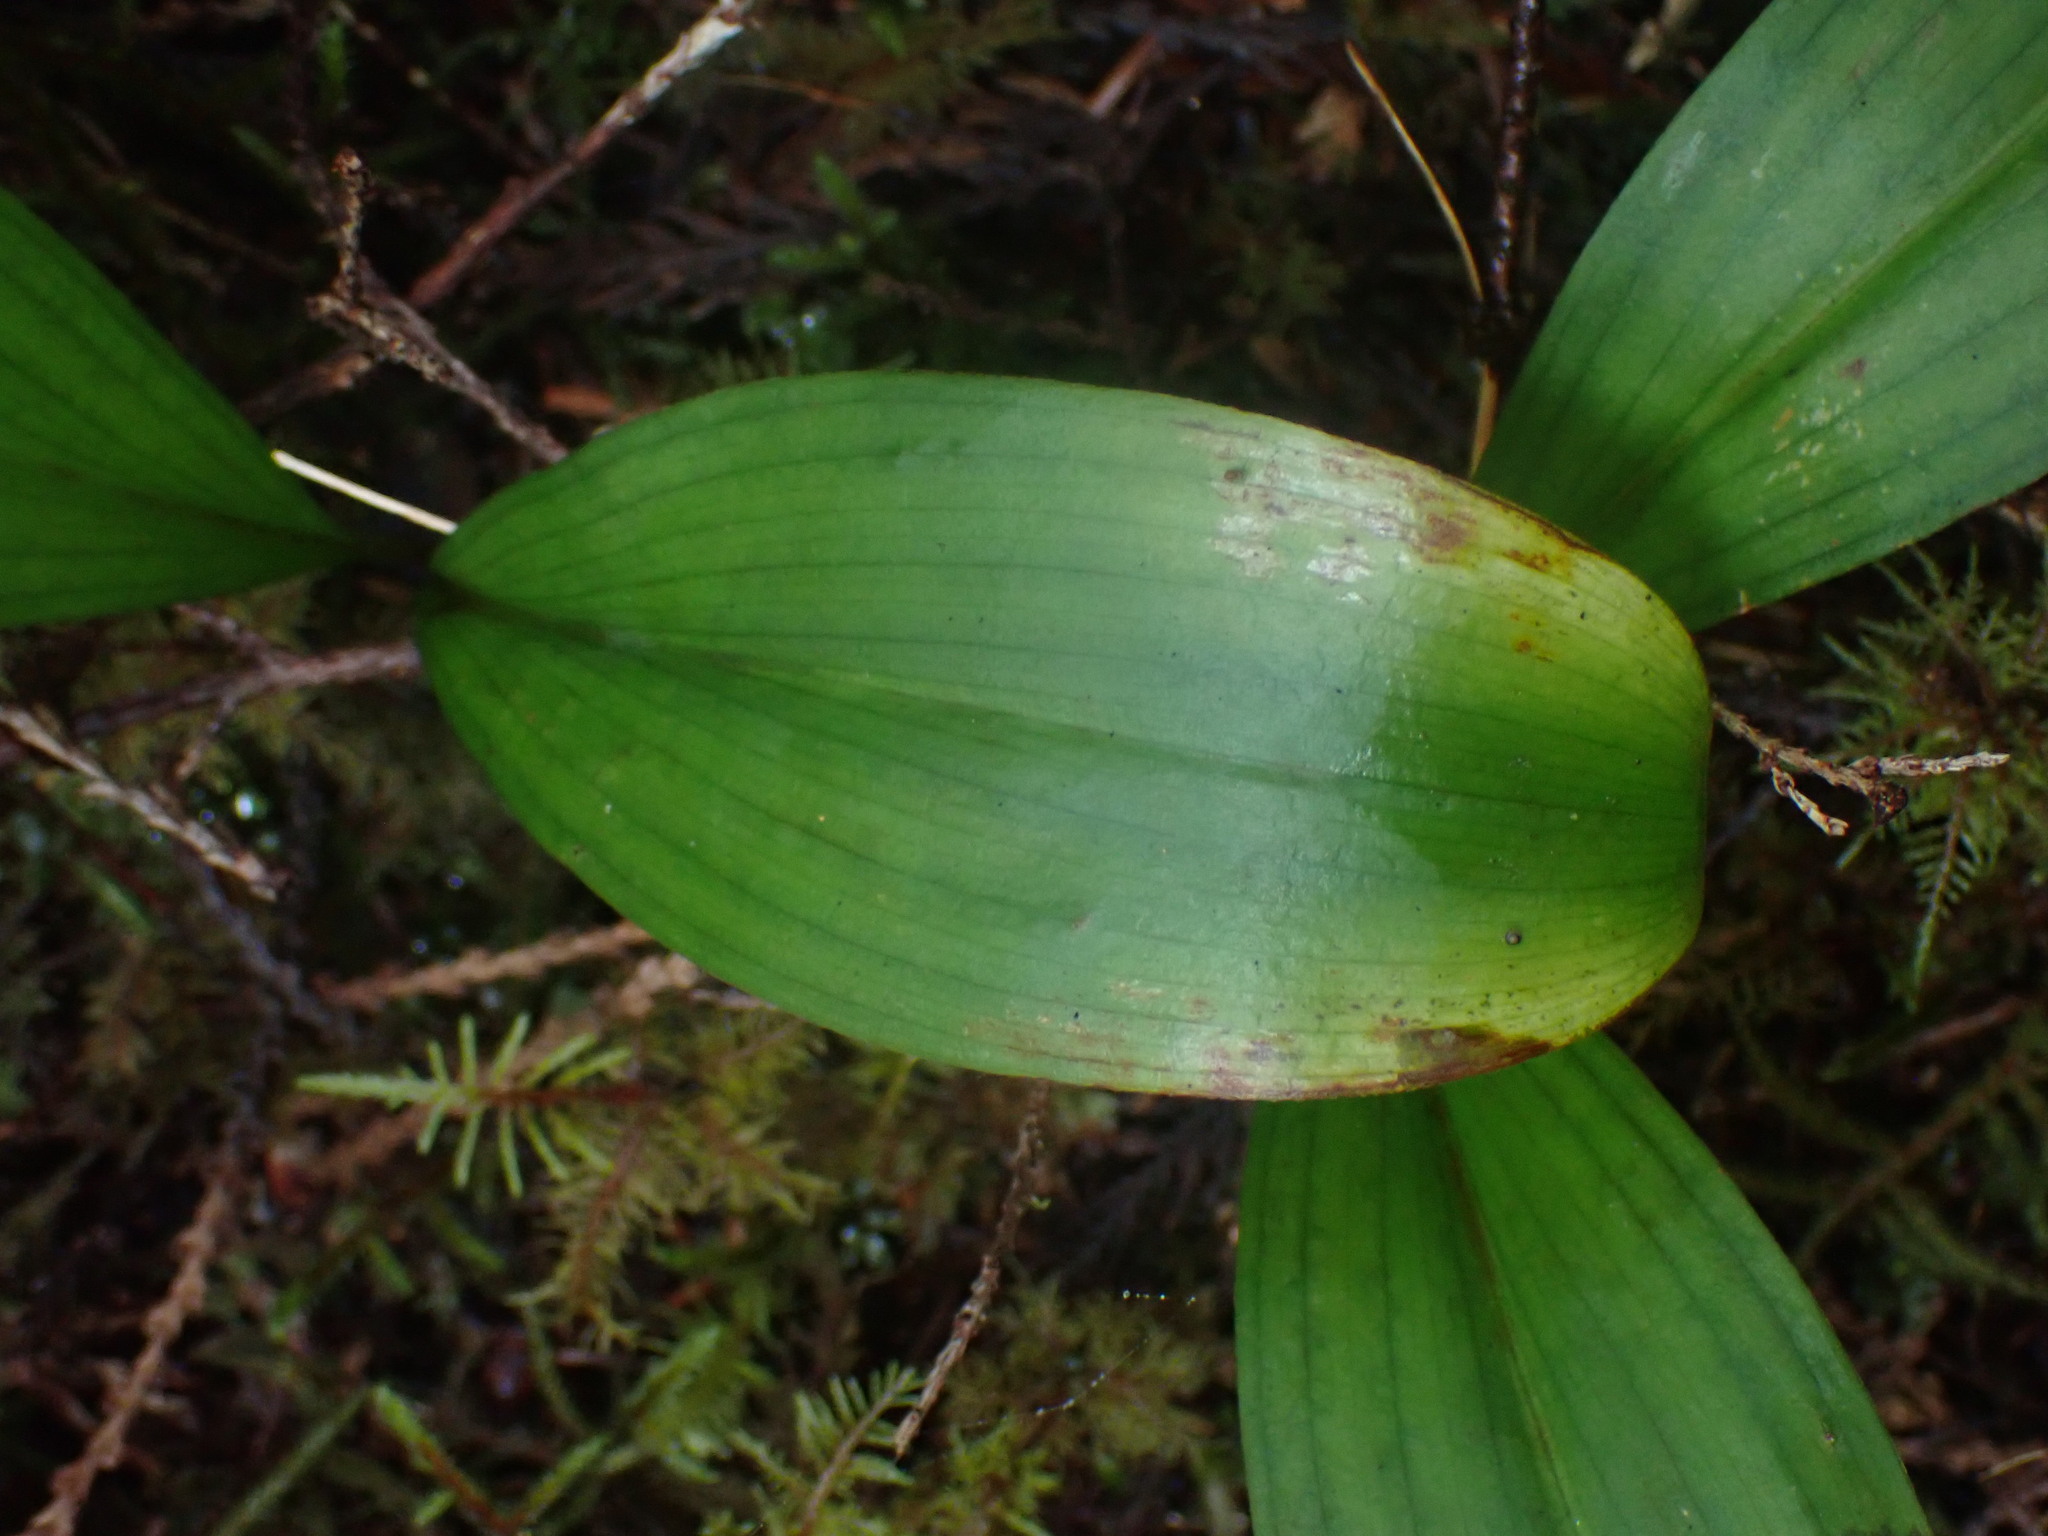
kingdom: Plantae
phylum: Tracheophyta
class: Liliopsida
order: Liliales
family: Liliaceae
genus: Clintonia
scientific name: Clintonia uniflora
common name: Queen's cup
